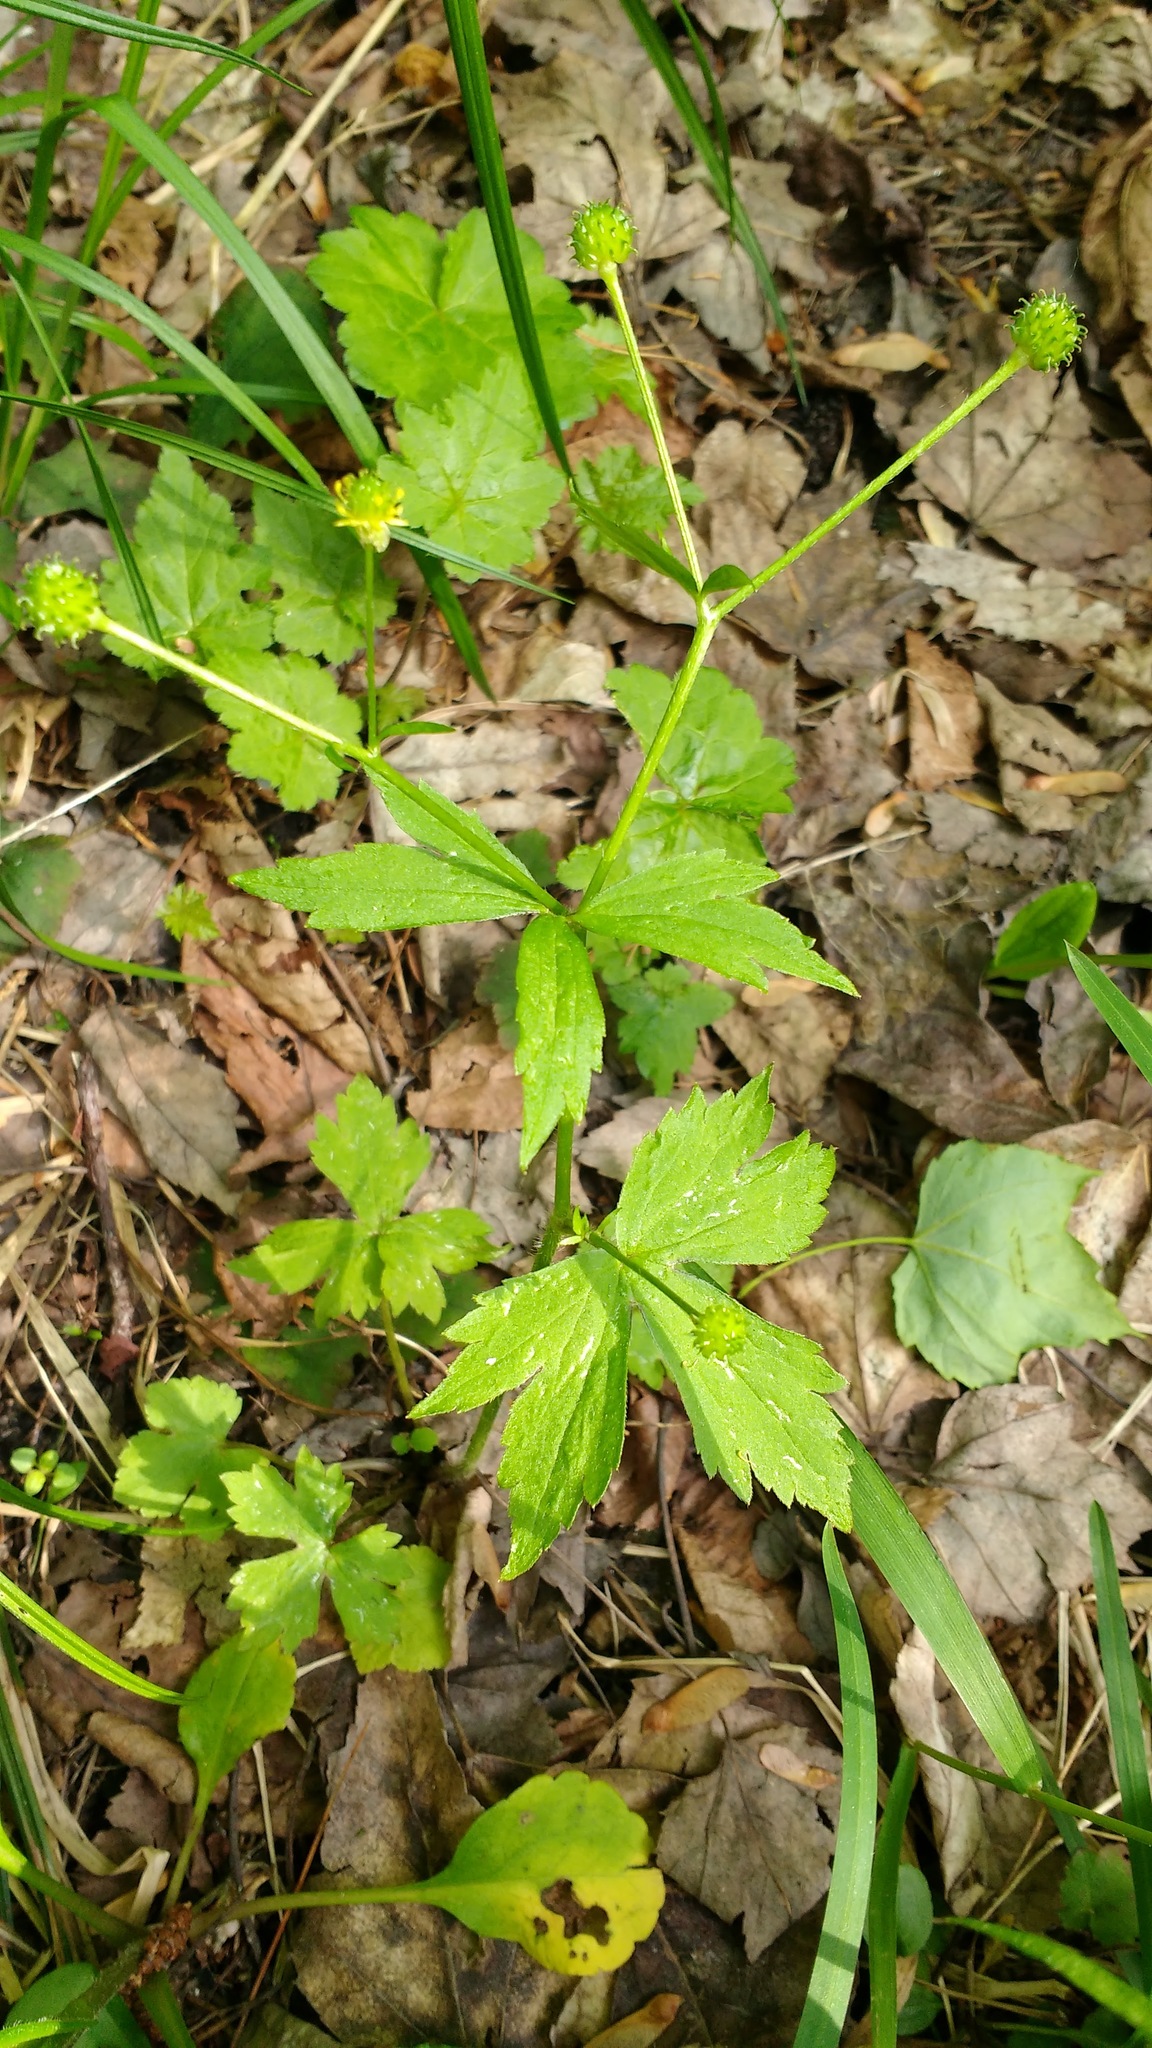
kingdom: Plantae
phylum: Tracheophyta
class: Magnoliopsida
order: Ranunculales
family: Ranunculaceae
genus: Ranunculus
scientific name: Ranunculus recurvatus
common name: Blisterwort
